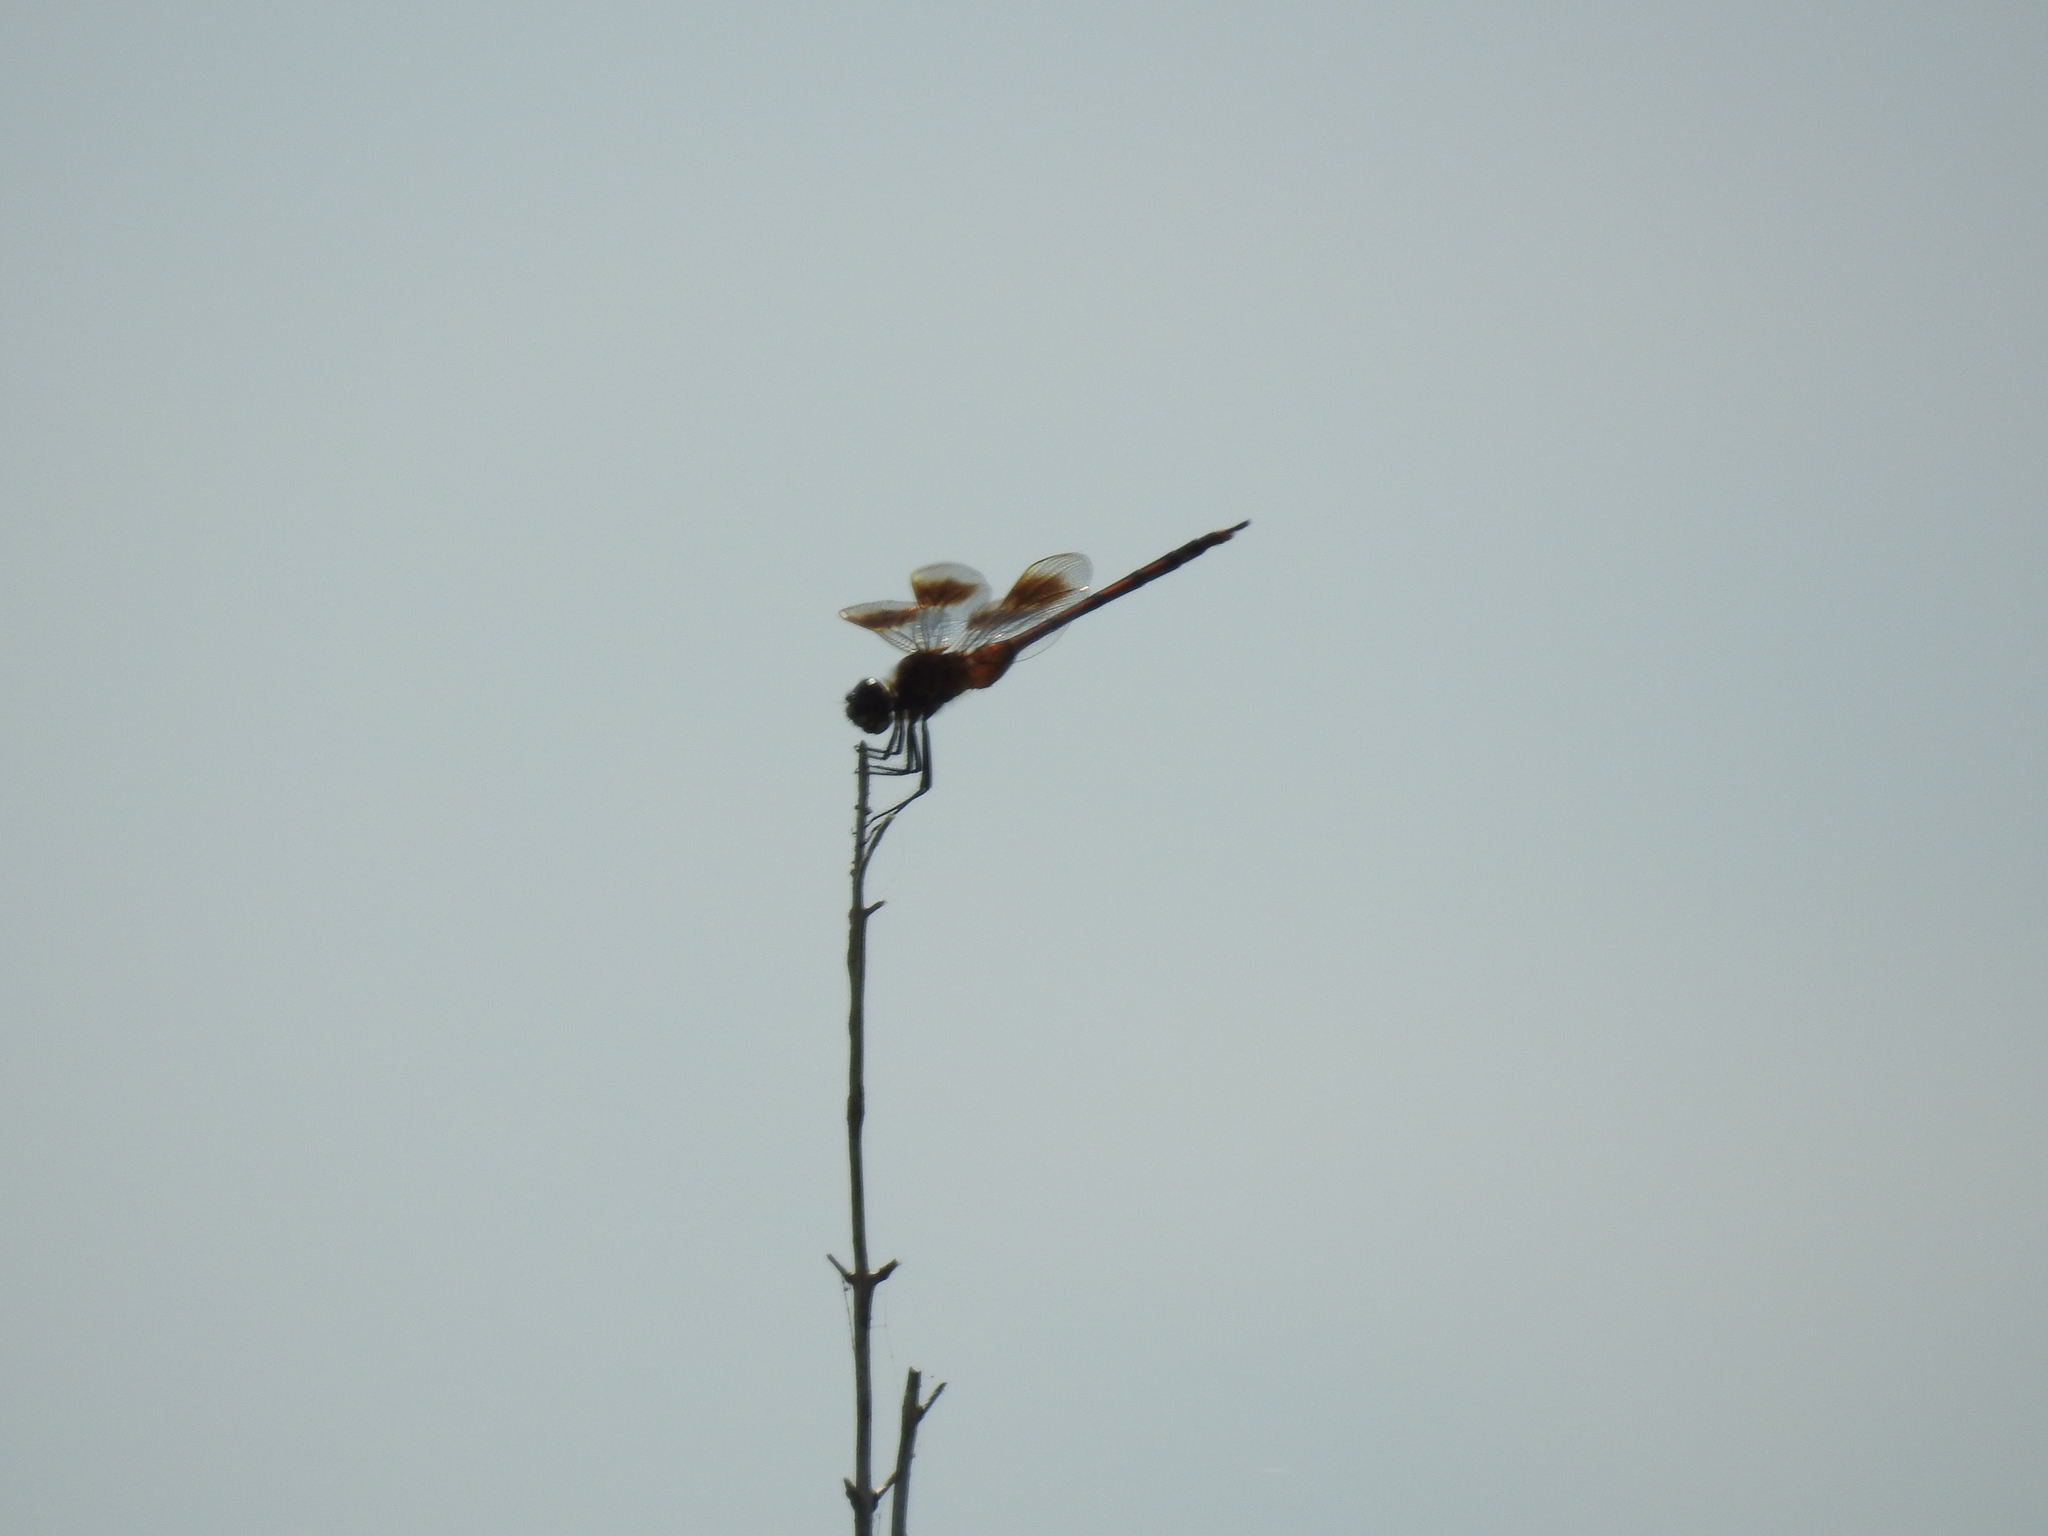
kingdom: Animalia
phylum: Arthropoda
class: Insecta
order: Odonata
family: Libellulidae
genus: Brachymesia
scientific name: Brachymesia gravida
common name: Four-spotted pennant
